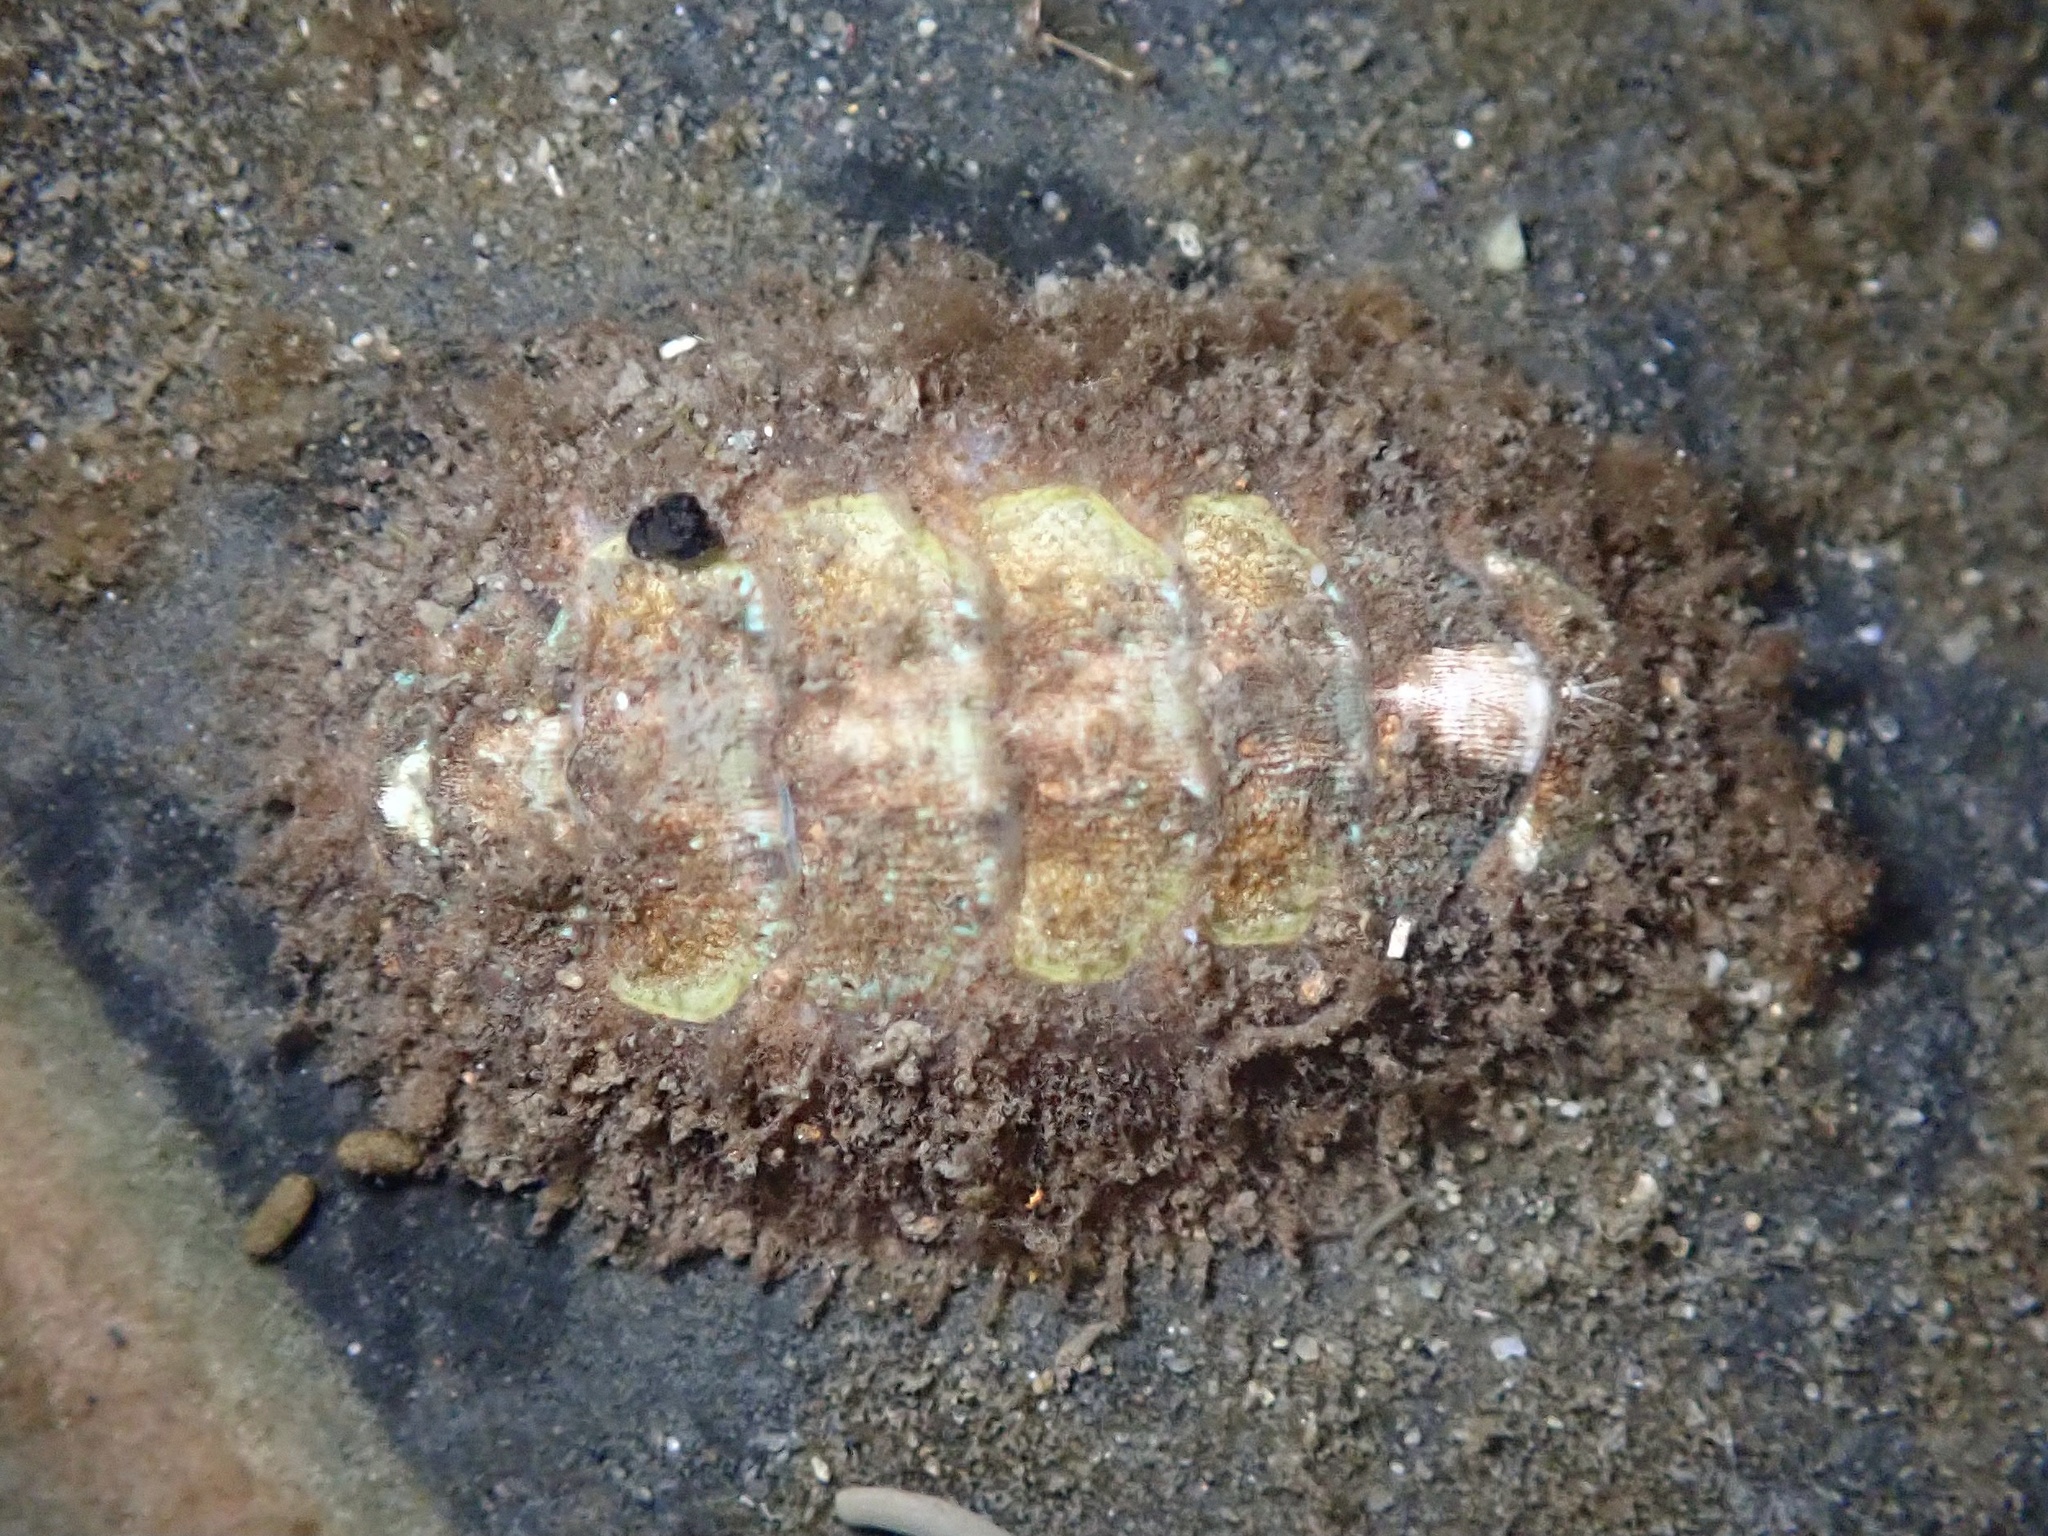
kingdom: Animalia
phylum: Mollusca
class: Polyplacophora
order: Chitonida
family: Mopaliidae
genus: Mopalia
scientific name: Mopalia ciliata
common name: Hairy chiton
